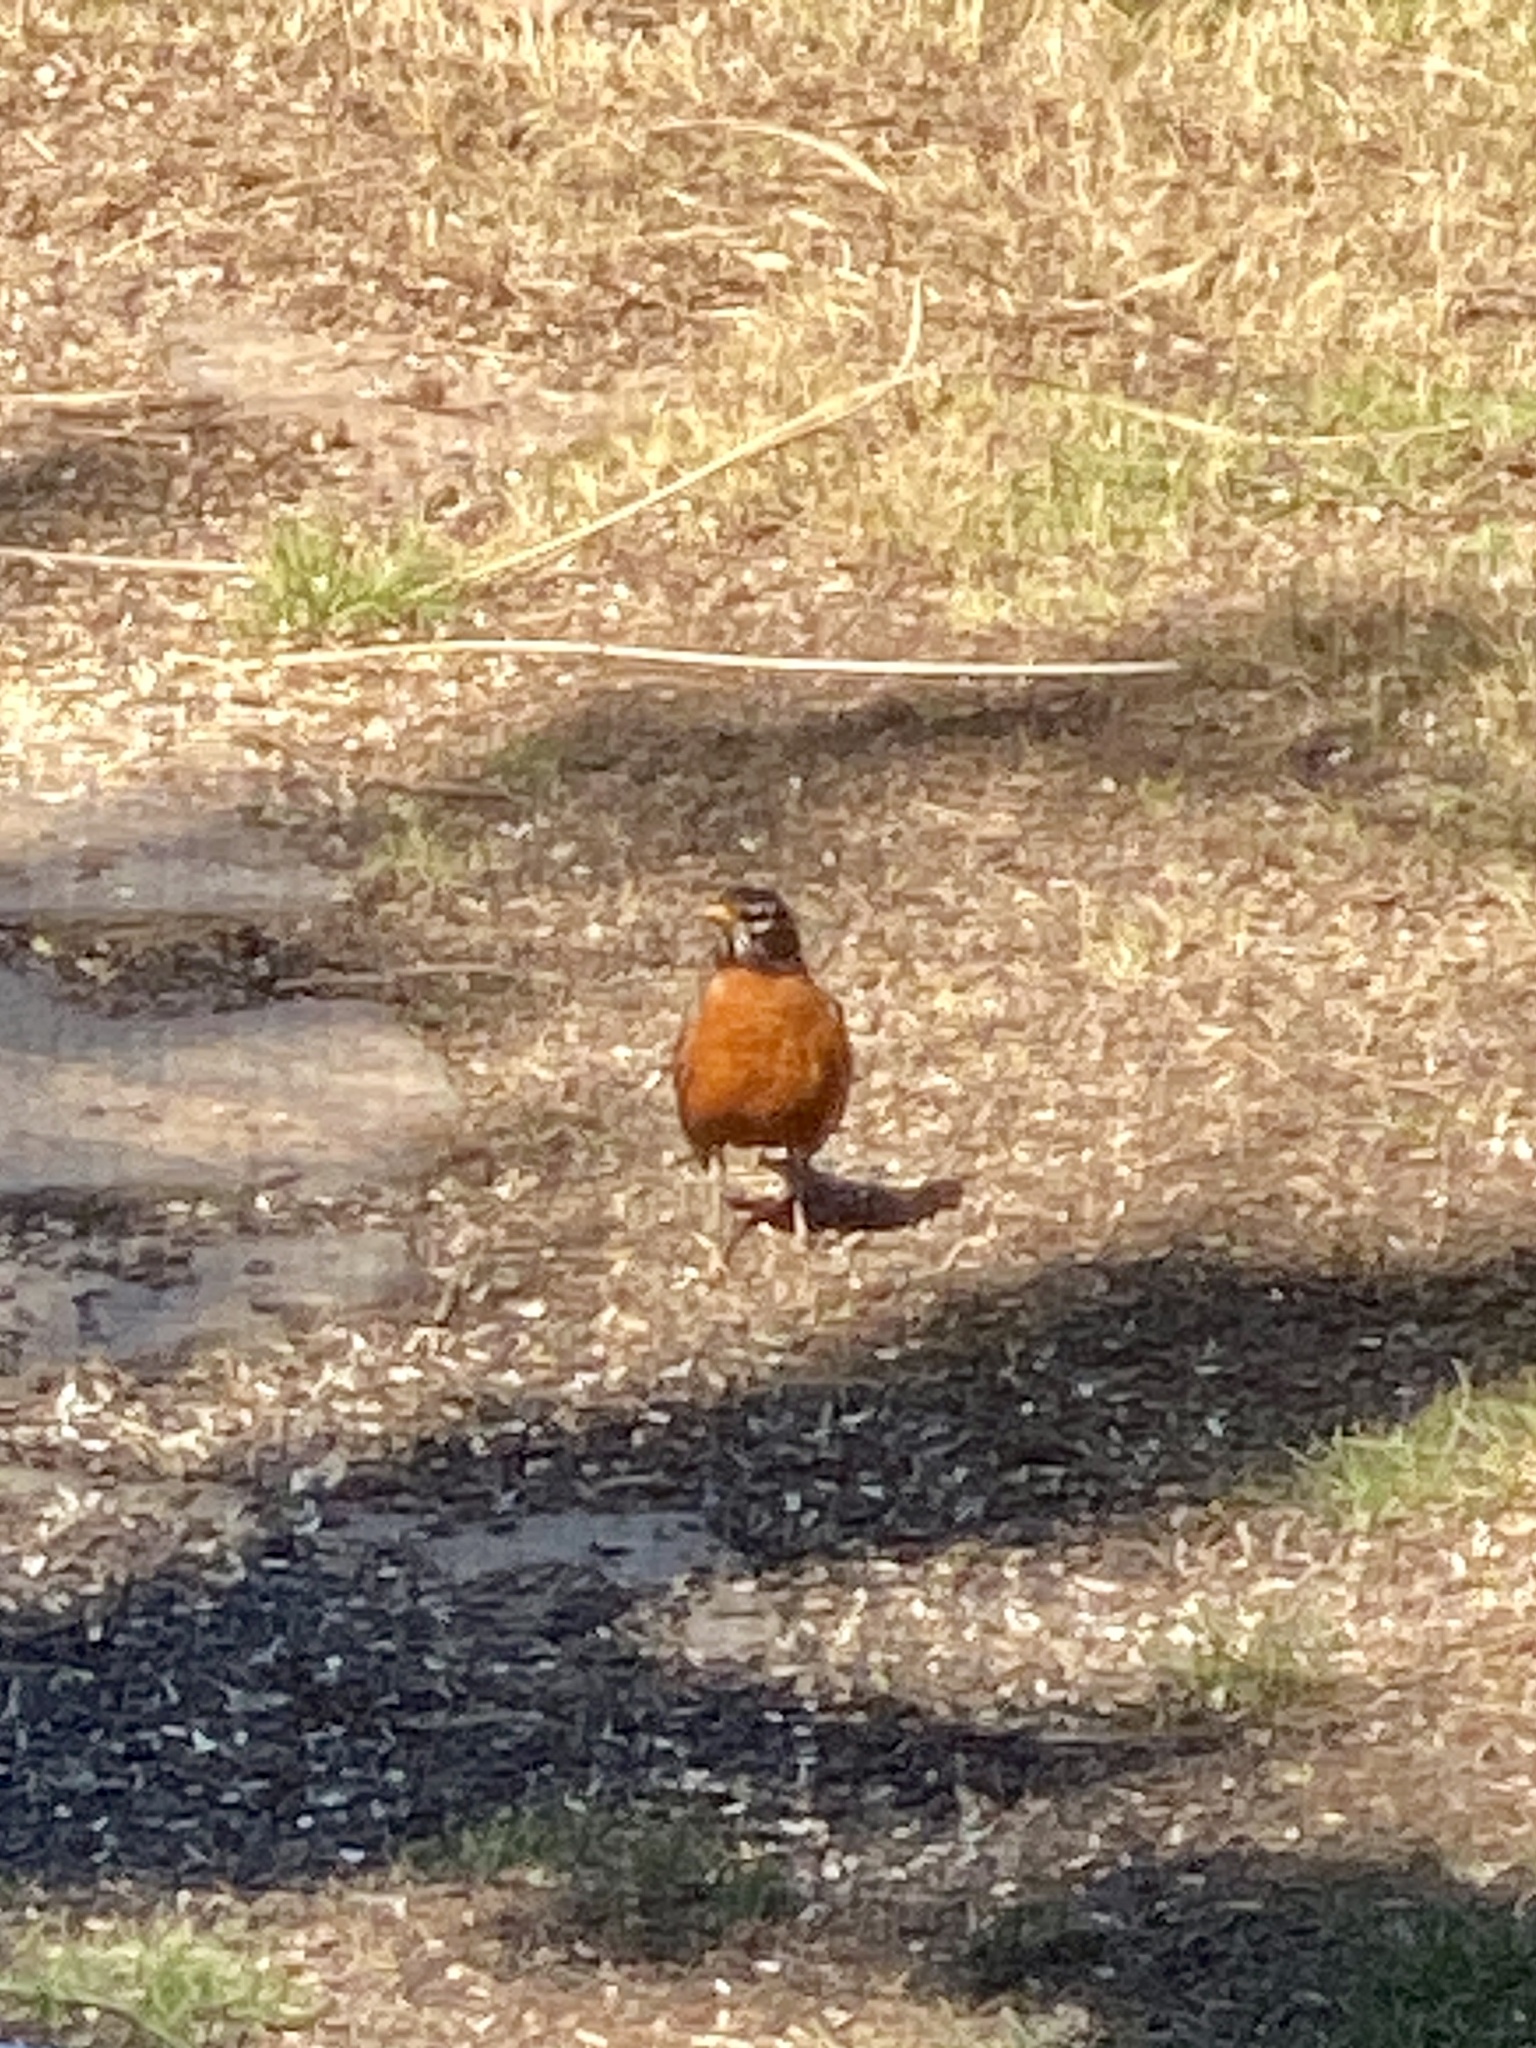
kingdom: Animalia
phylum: Chordata
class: Aves
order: Passeriformes
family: Turdidae
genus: Turdus
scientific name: Turdus migratorius
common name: American robin
